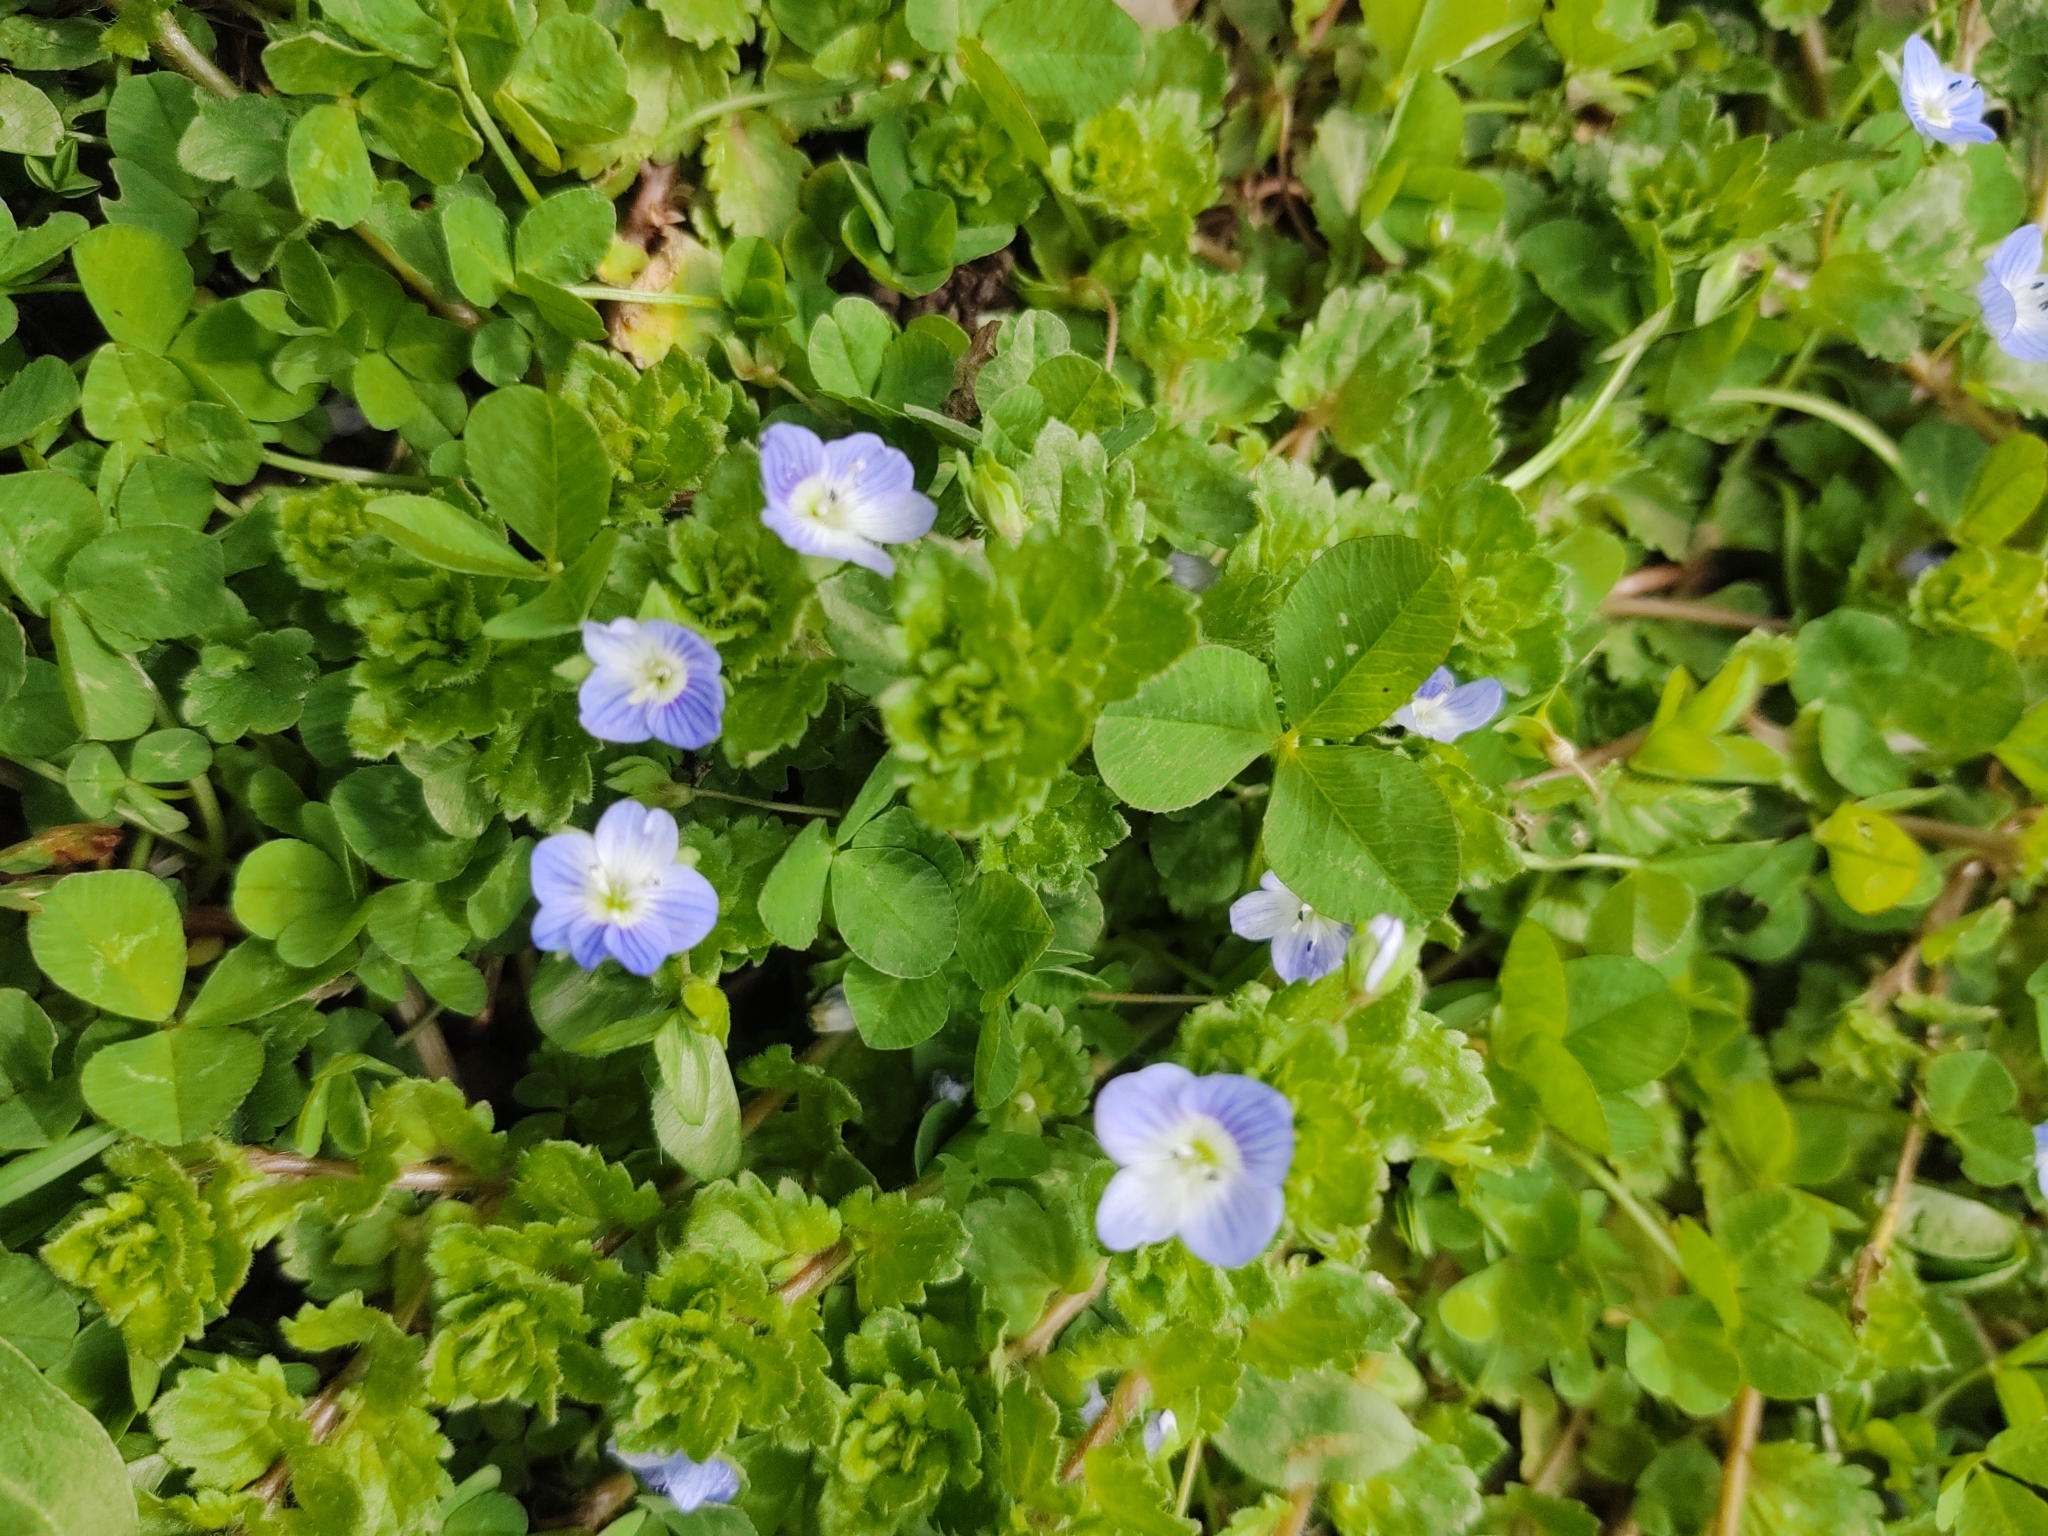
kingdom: Plantae
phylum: Tracheophyta
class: Magnoliopsida
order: Lamiales
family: Plantaginaceae
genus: Veronica
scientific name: Veronica persica
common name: Common field-speedwell
